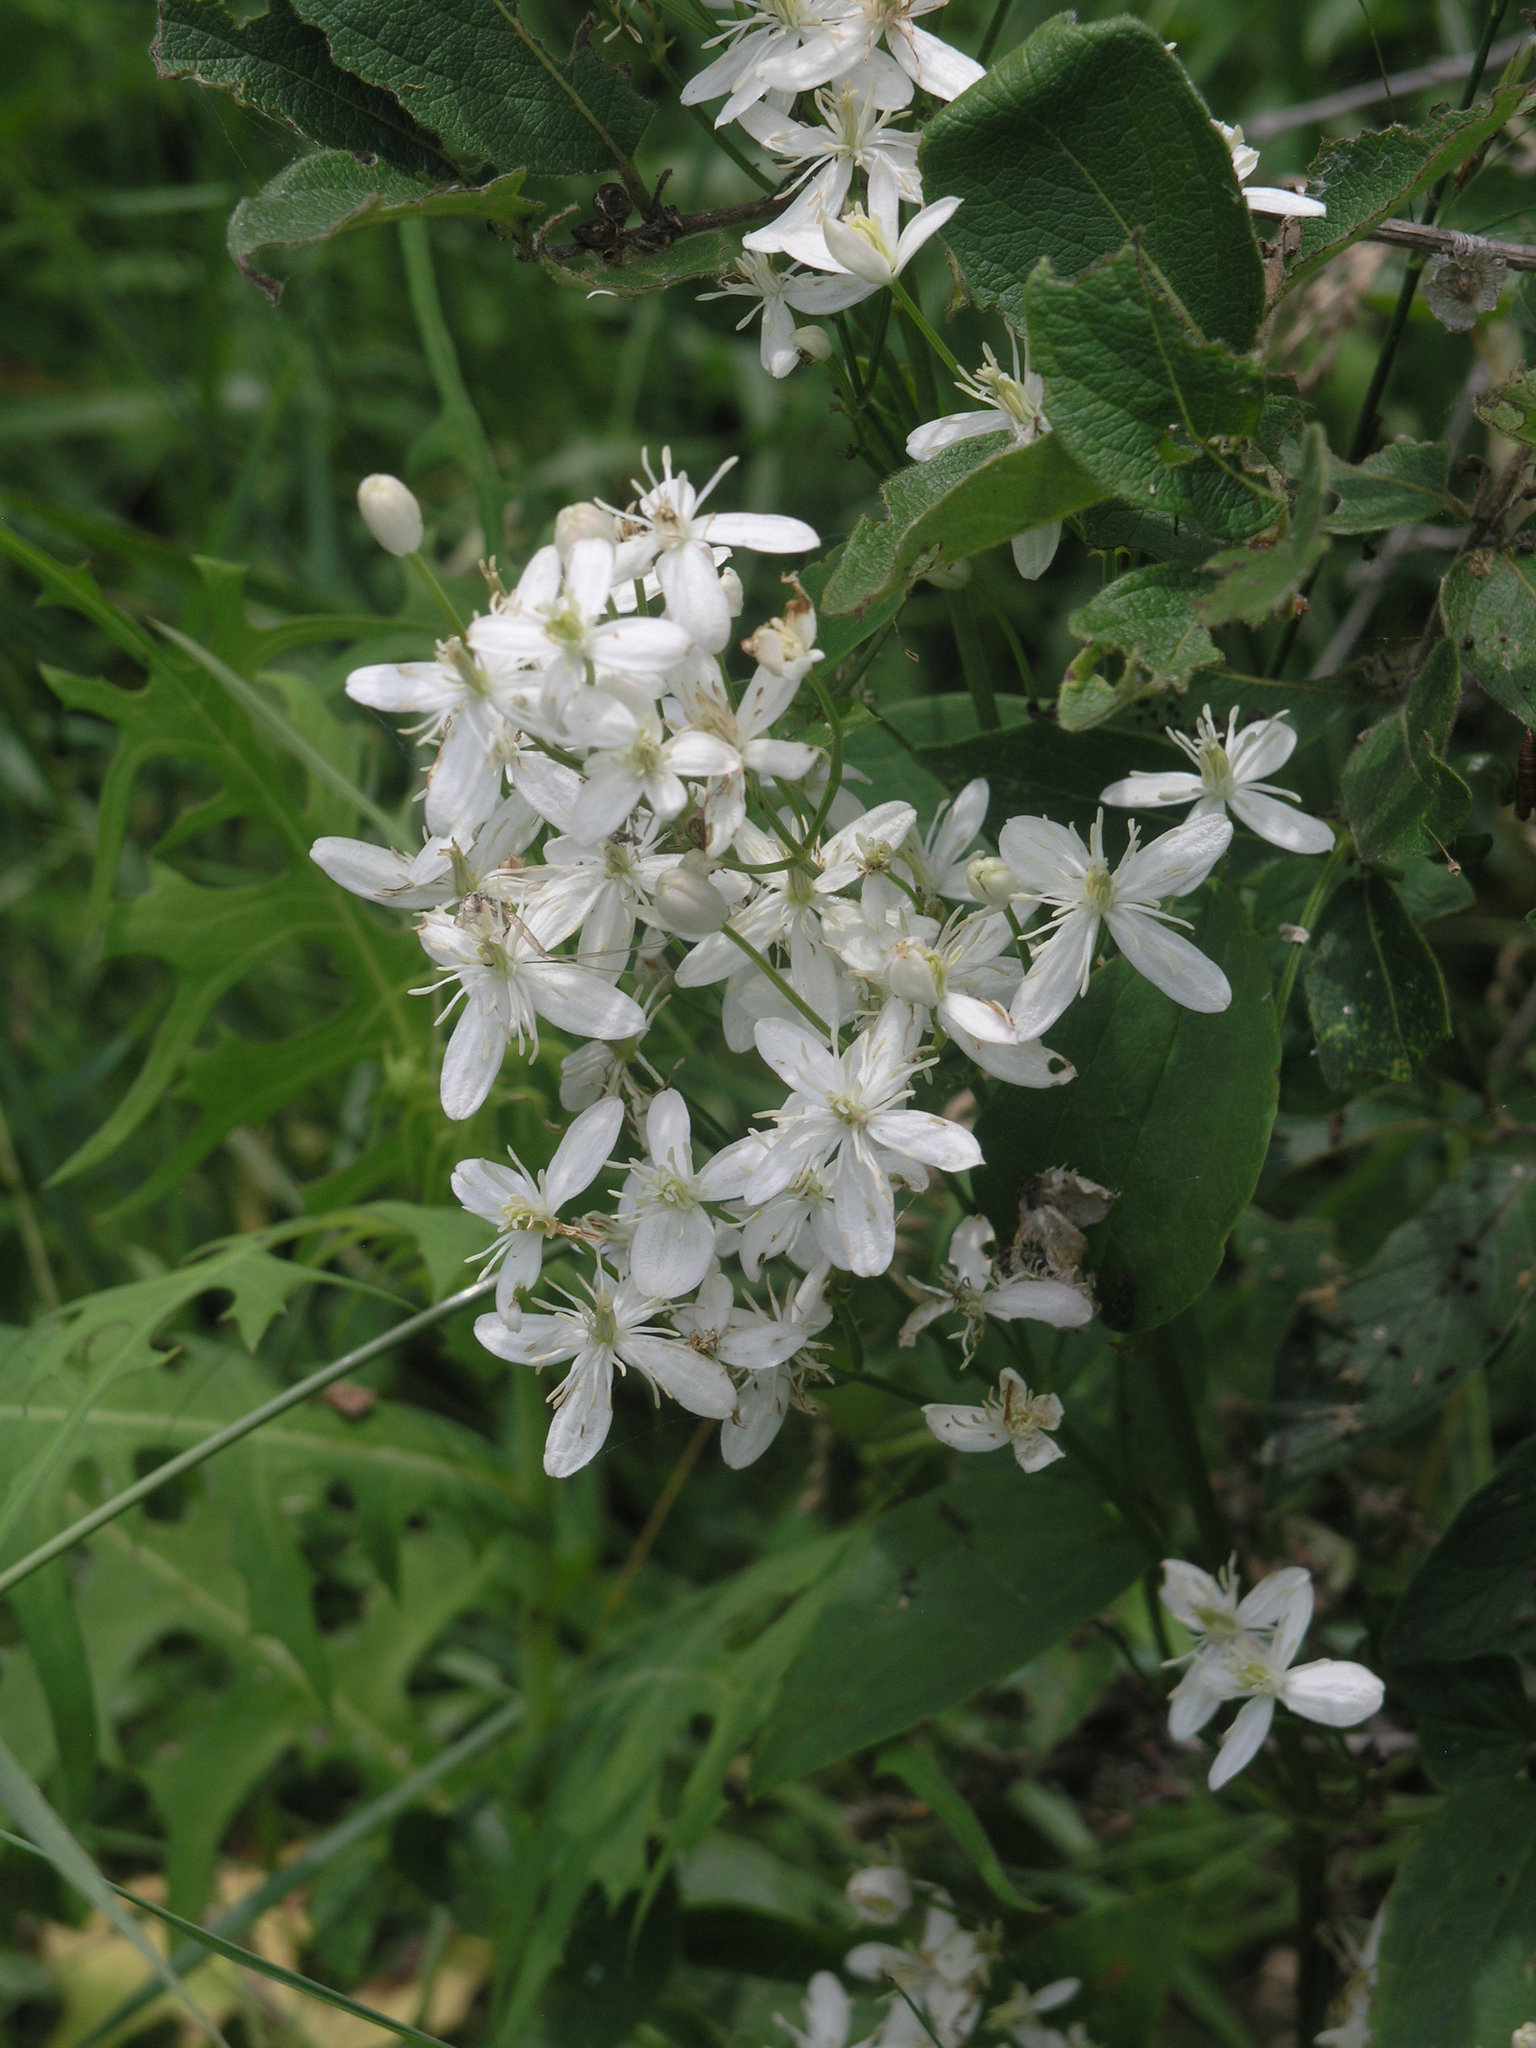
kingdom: Plantae
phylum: Tracheophyta
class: Magnoliopsida
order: Ranunculales
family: Ranunculaceae
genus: Clematis
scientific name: Clematis terniflora
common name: Sweet autumn clematis
